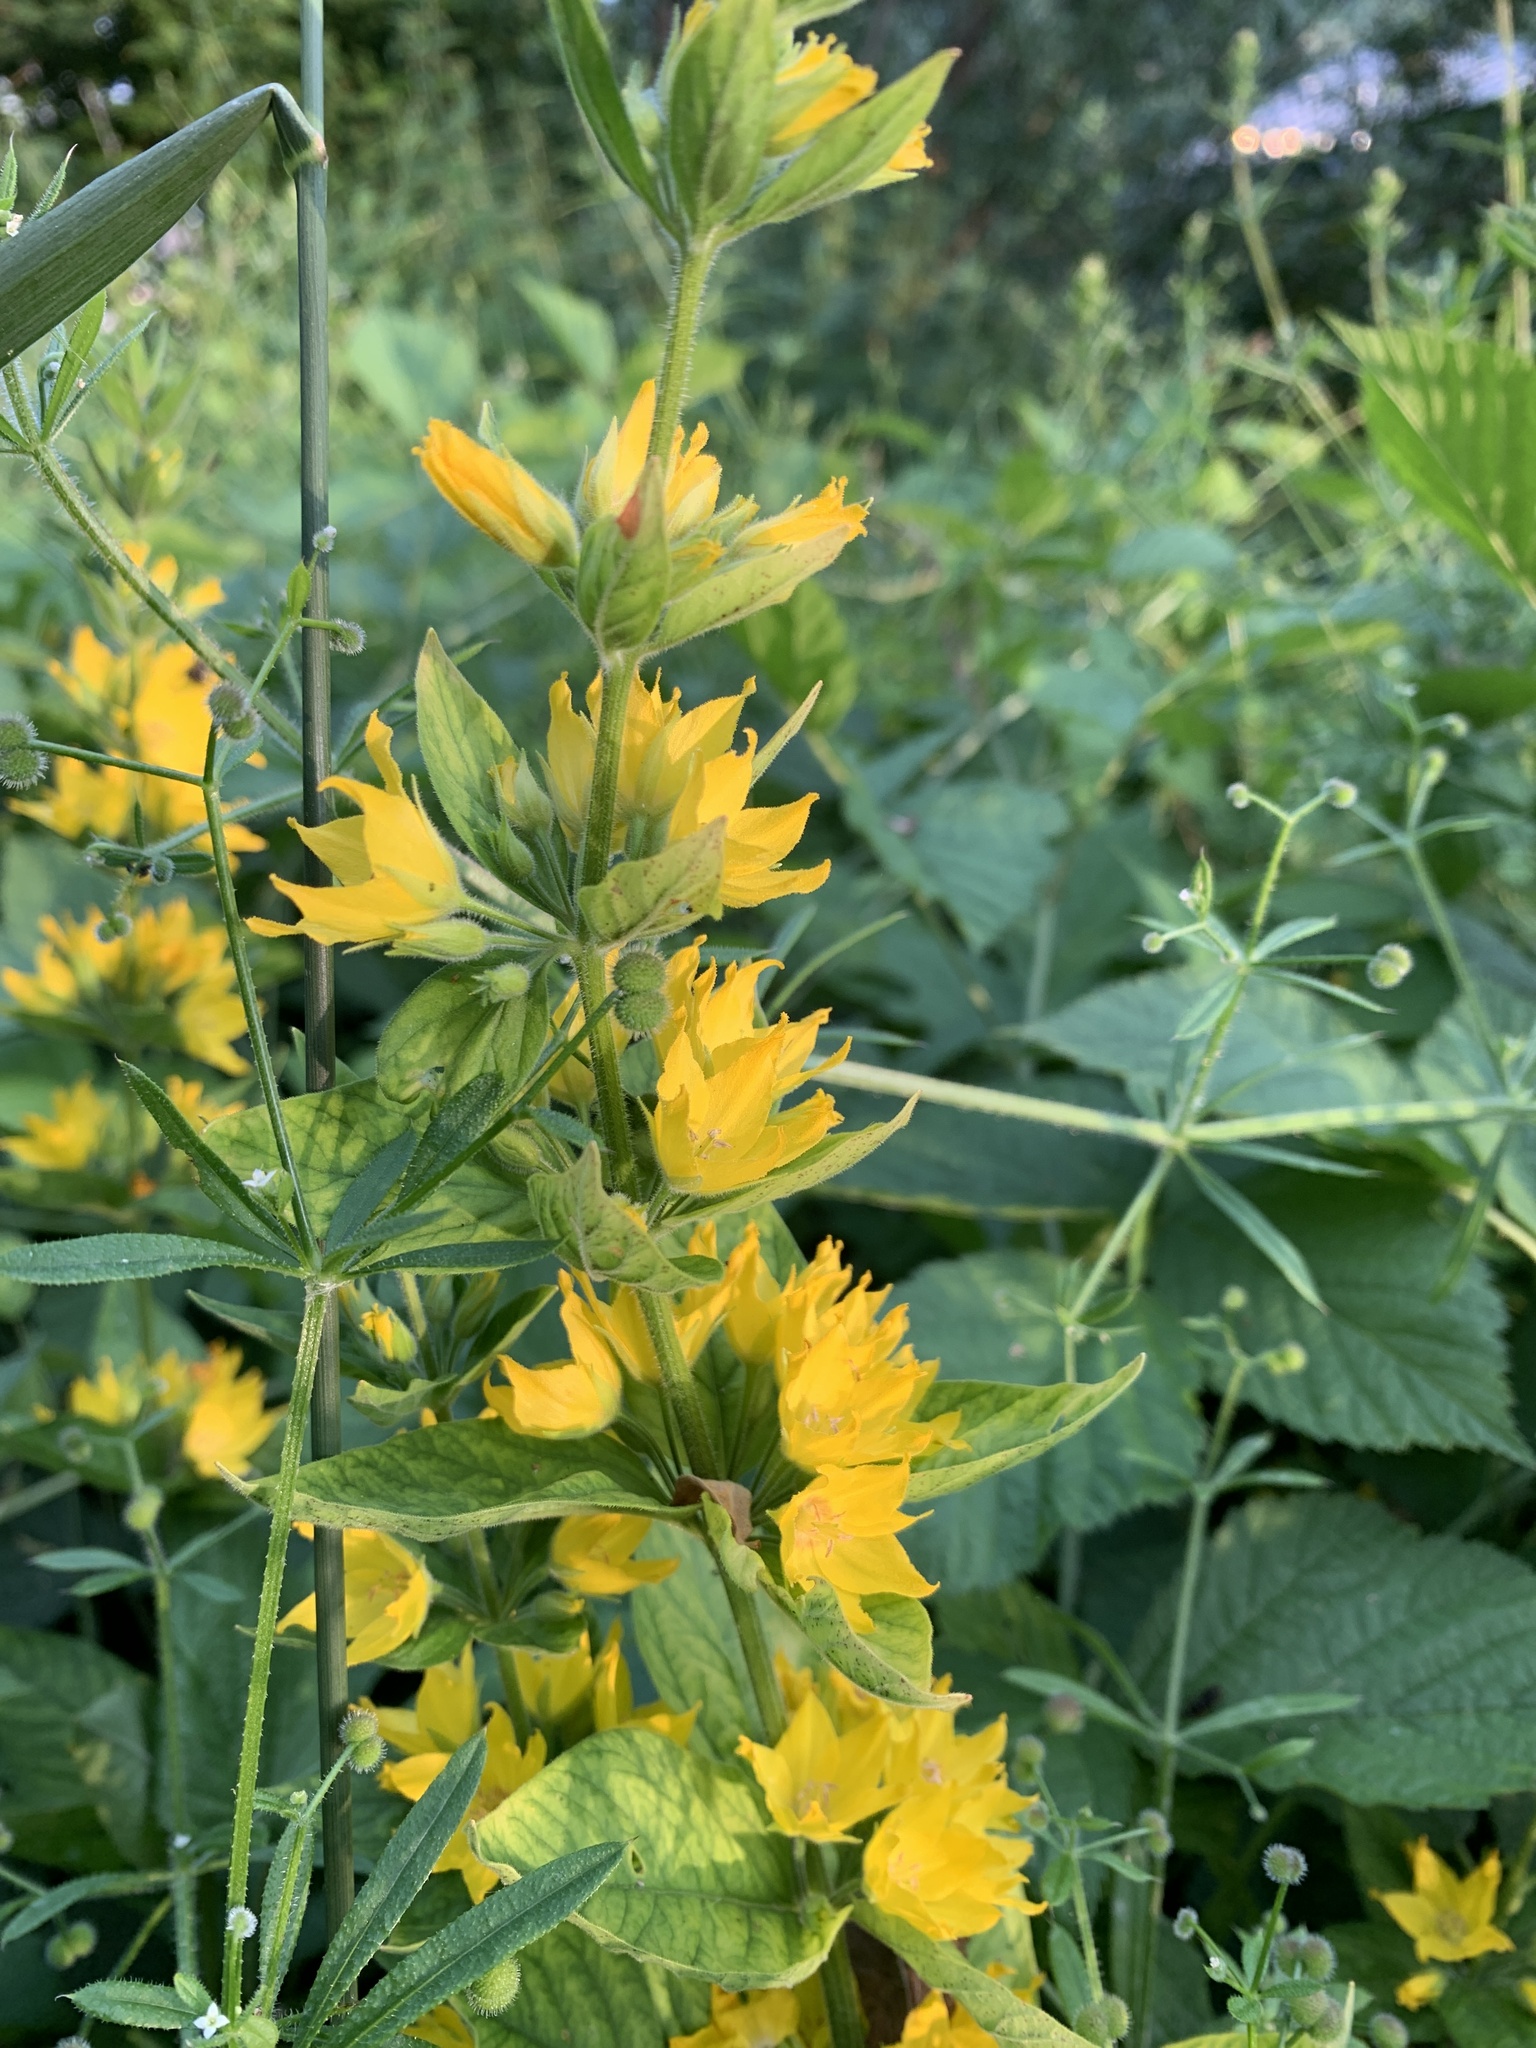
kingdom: Plantae
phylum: Tracheophyta
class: Magnoliopsida
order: Ericales
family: Primulaceae
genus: Lysimachia
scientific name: Lysimachia punctata
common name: Dotted loosestrife
